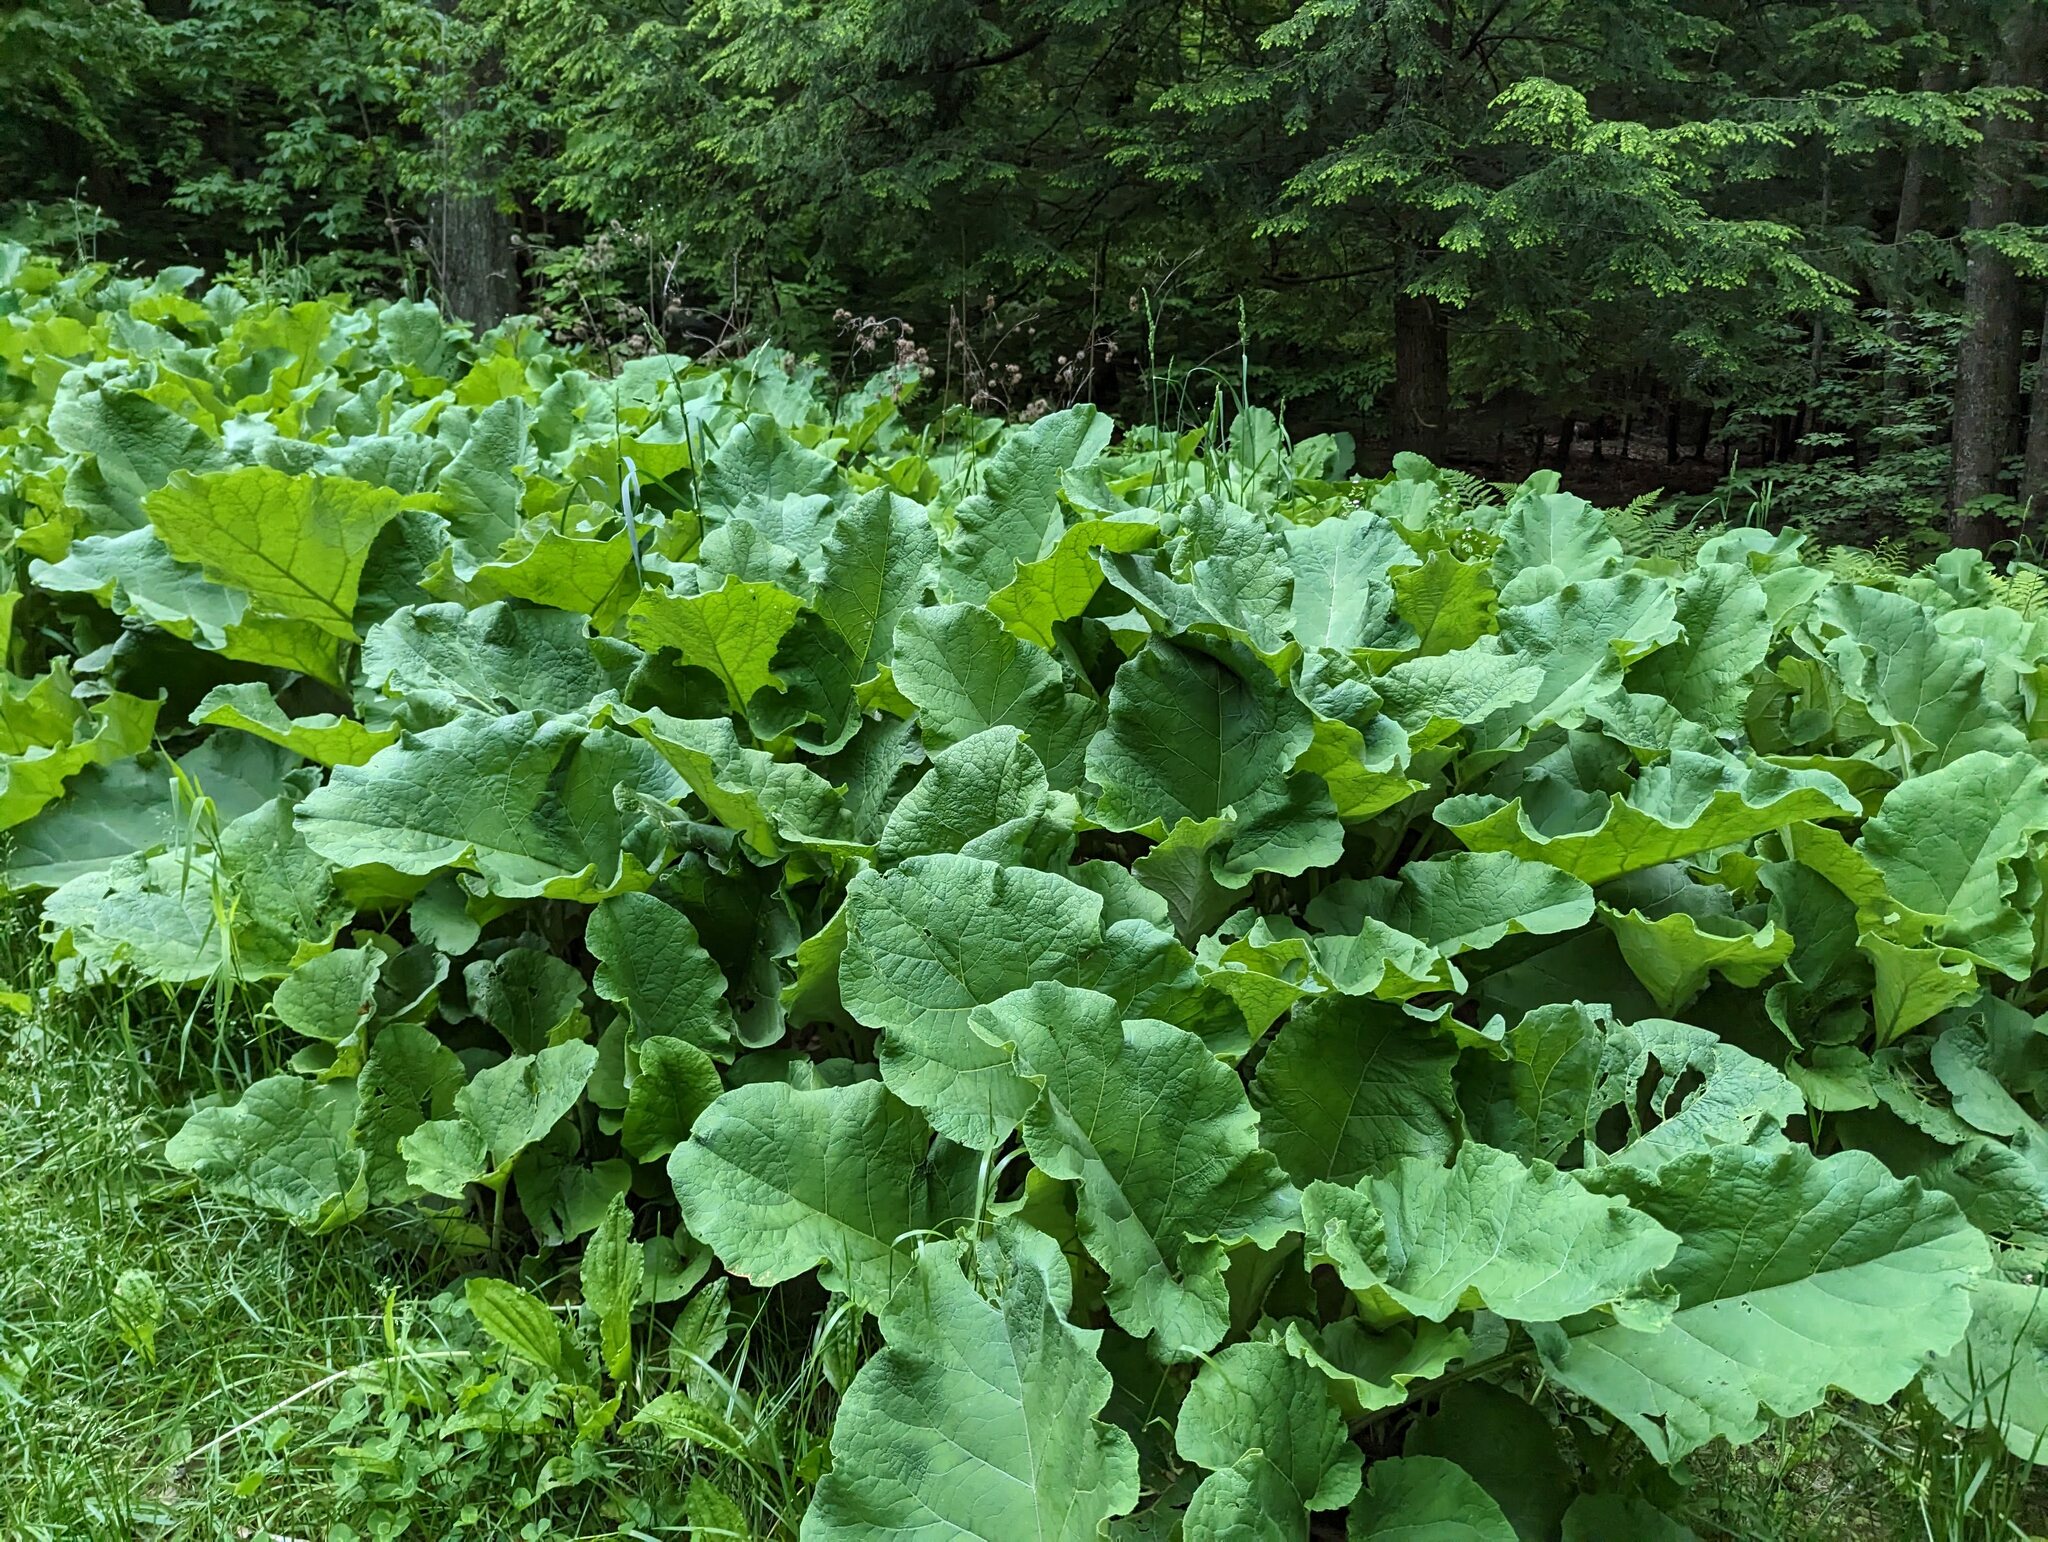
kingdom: Plantae
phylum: Tracheophyta
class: Magnoliopsida
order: Asterales
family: Asteraceae
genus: Arctium
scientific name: Arctium
